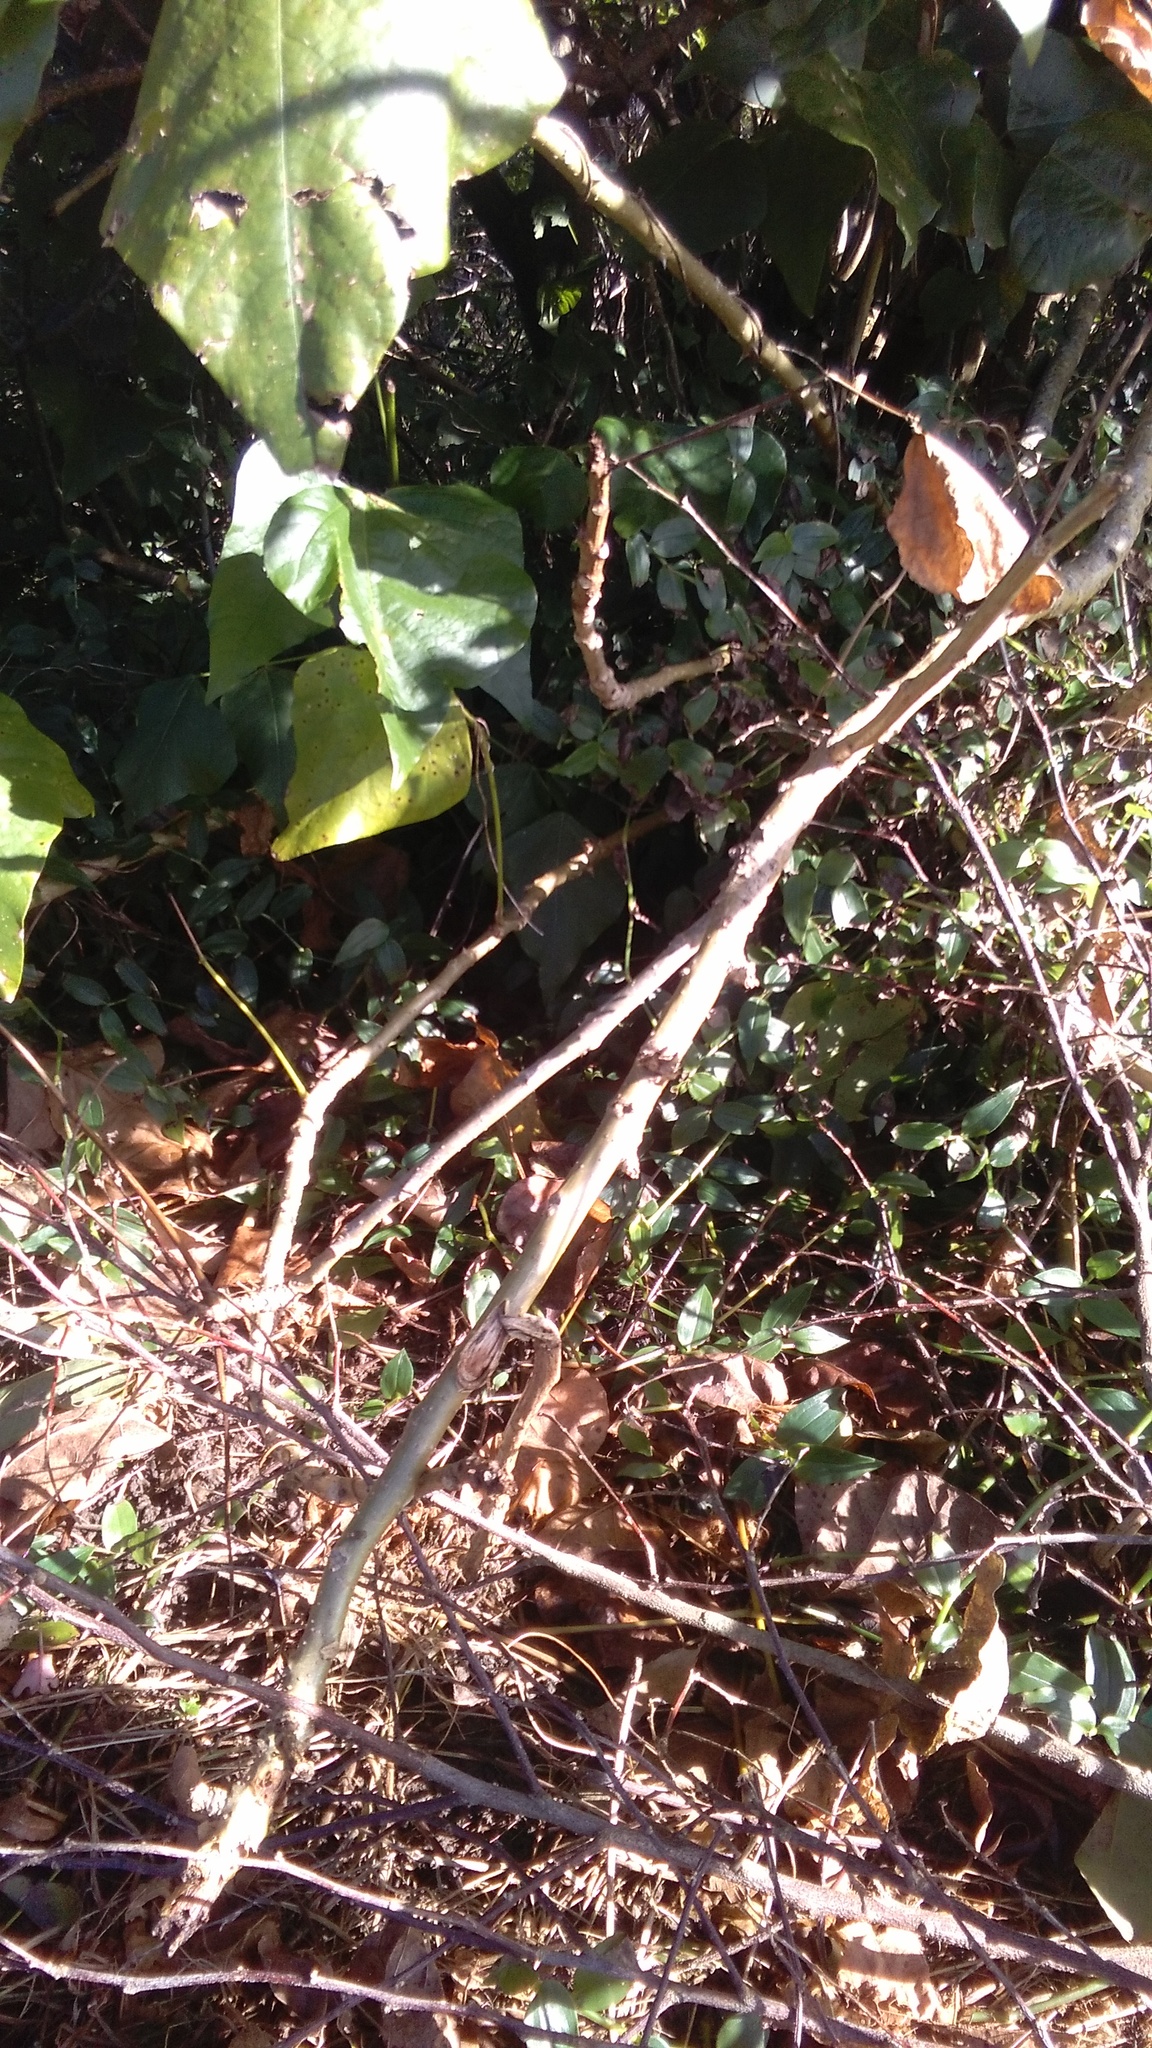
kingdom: Plantae
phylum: Tracheophyta
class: Magnoliopsida
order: Fabales
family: Fabaceae
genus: Erythrina
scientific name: Erythrina sykesii
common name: Coraltree
